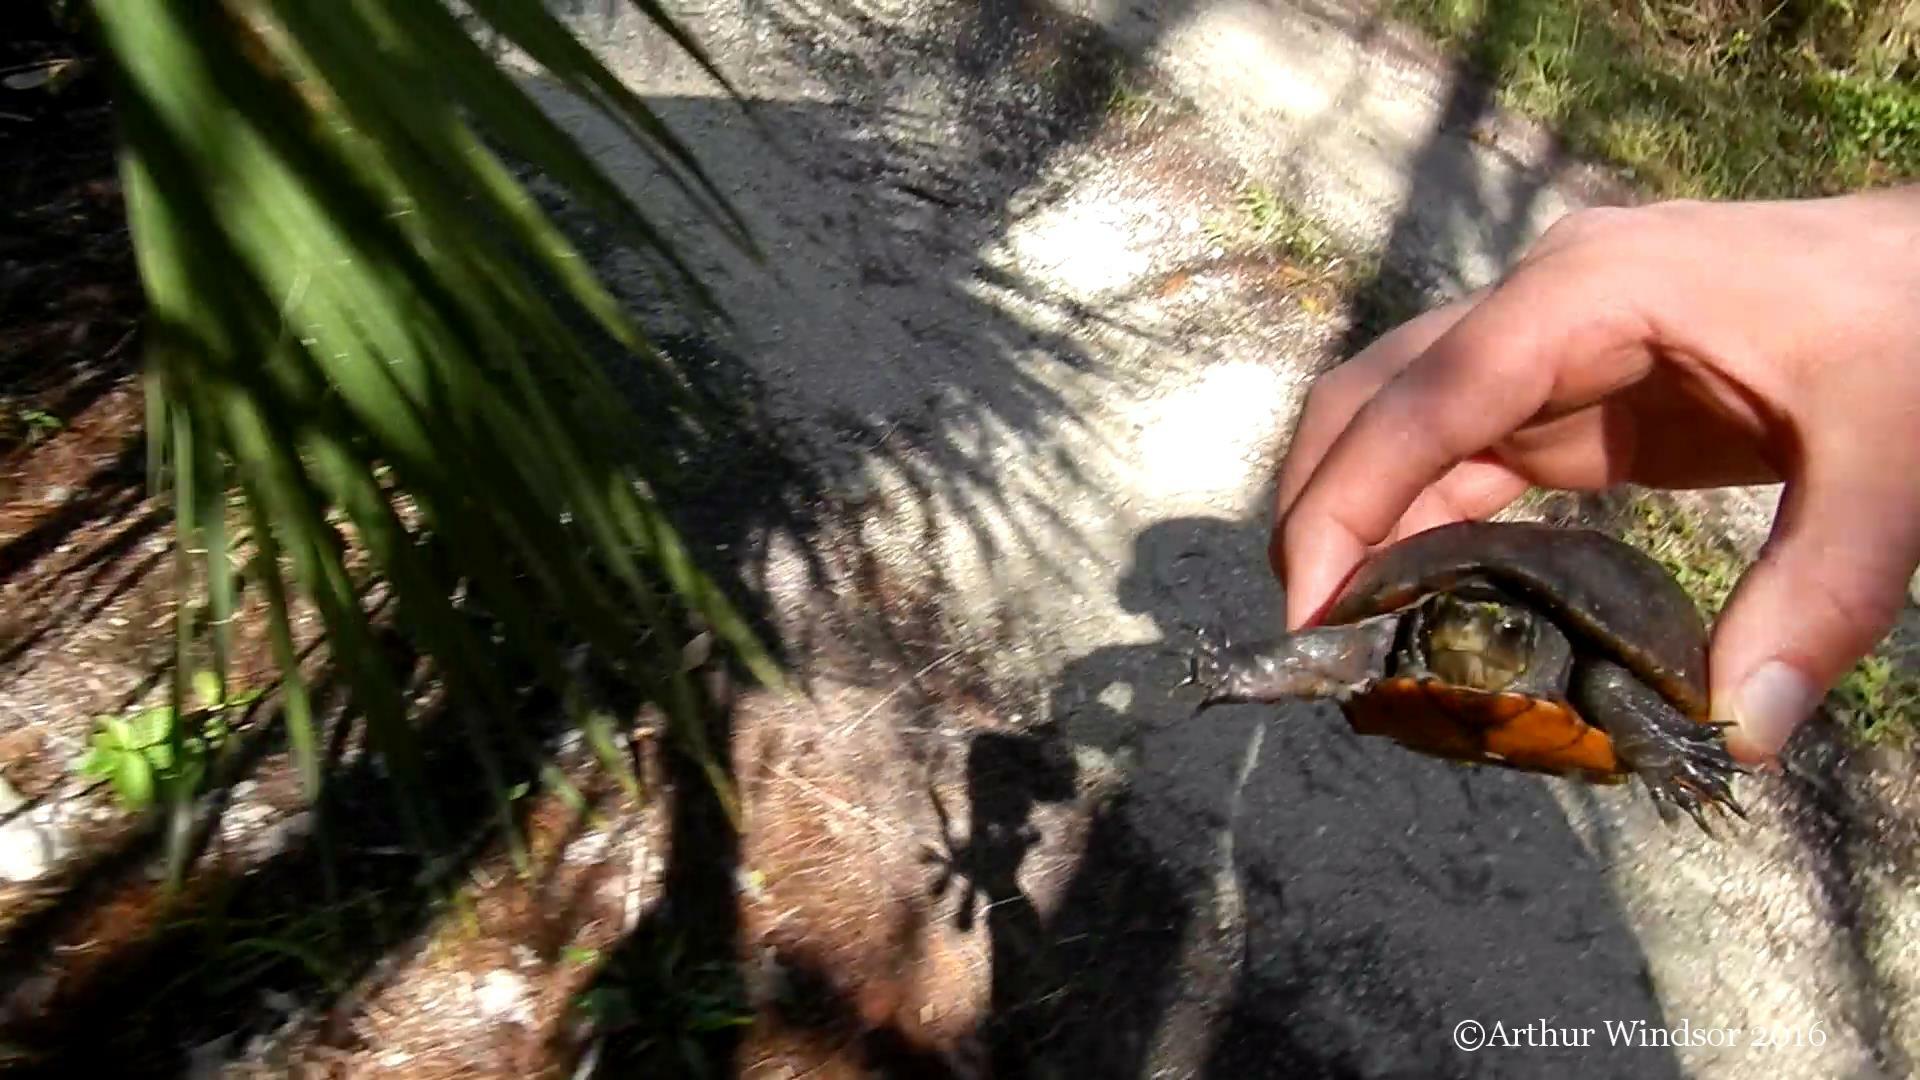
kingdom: Animalia
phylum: Chordata
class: Testudines
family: Kinosternidae
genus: Kinosternon
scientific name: Kinosternon baurii
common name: Striped mud turtle
